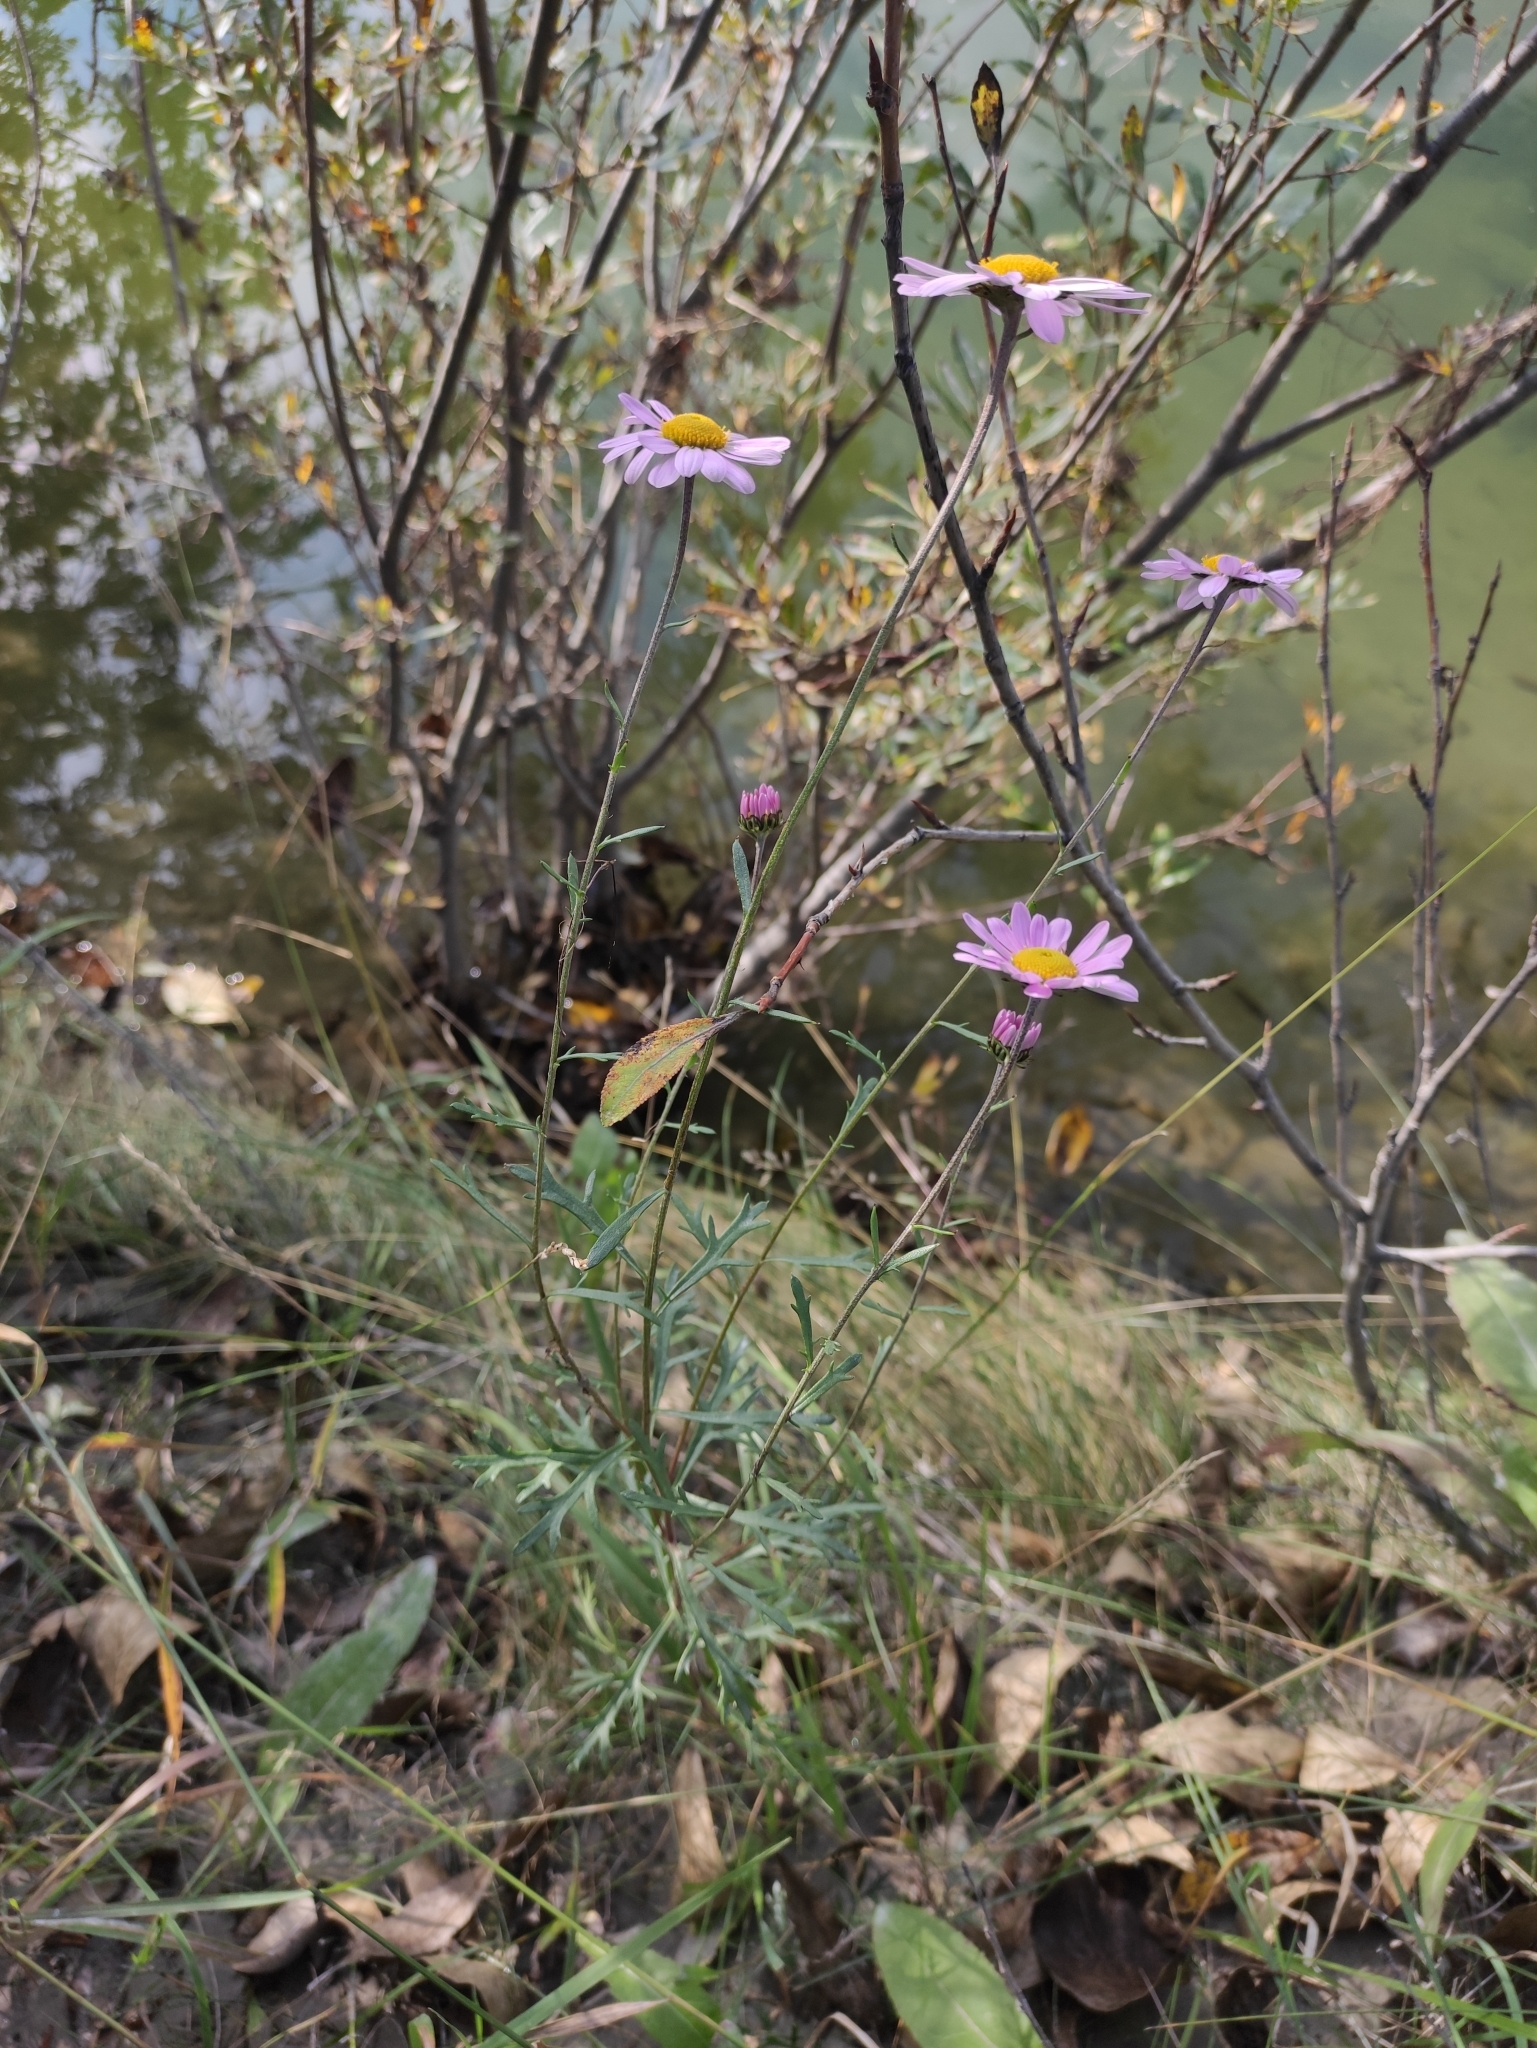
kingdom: Plantae
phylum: Tracheophyta
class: Magnoliopsida
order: Asterales
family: Asteraceae
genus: Chrysanthemum
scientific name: Chrysanthemum zawadzkii
